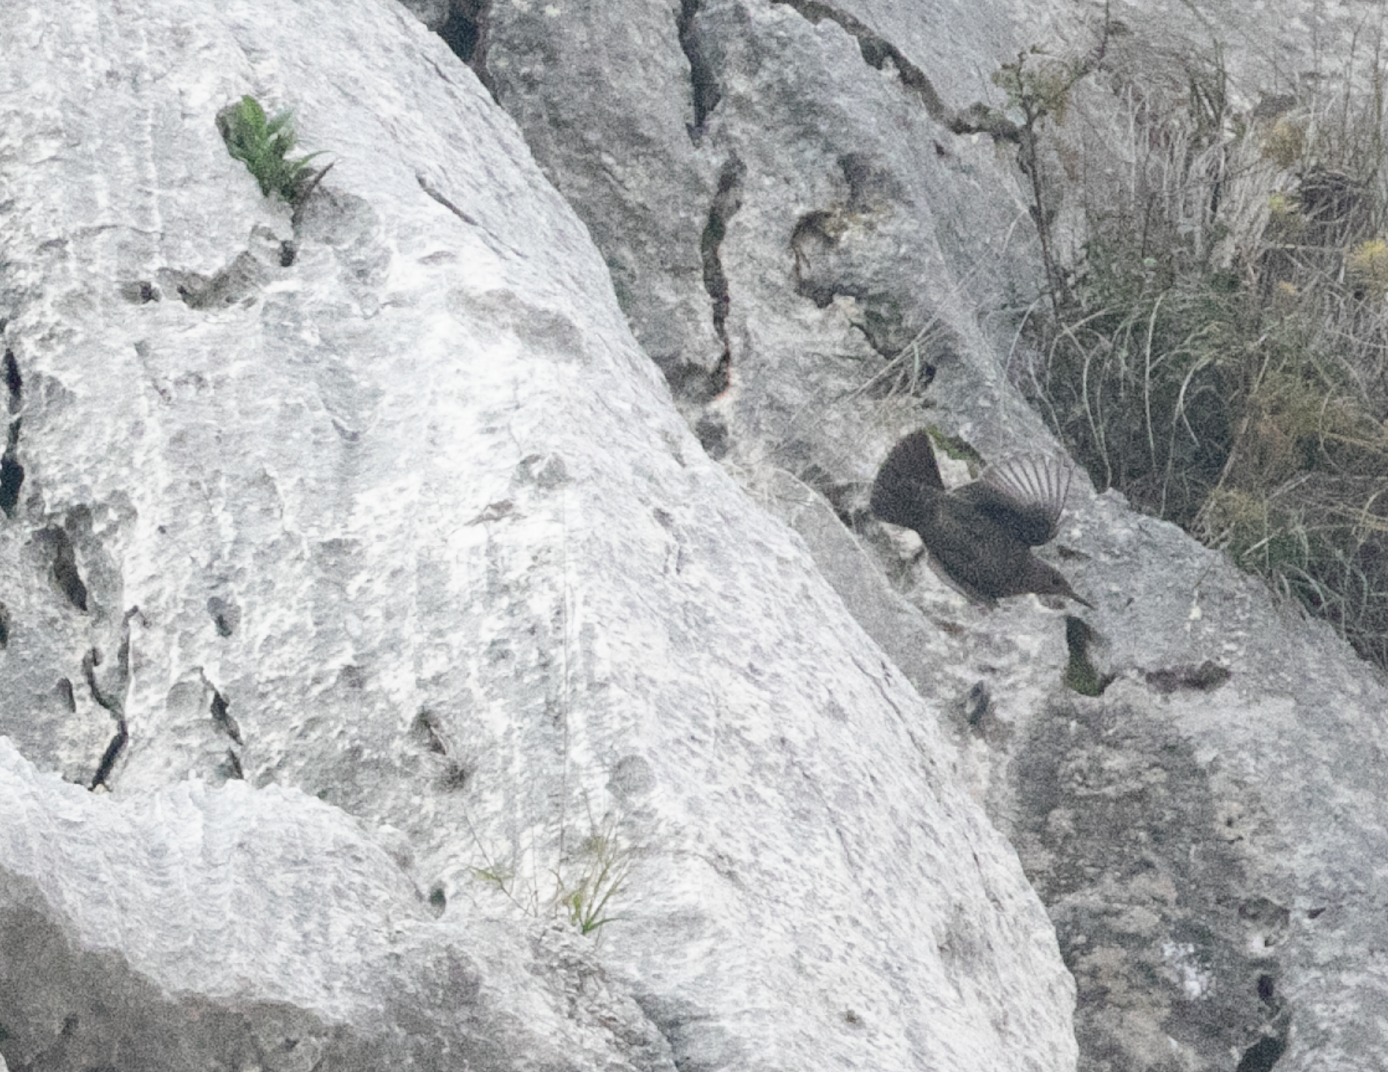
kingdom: Animalia
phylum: Chordata
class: Aves
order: Passeriformes
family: Muscicapidae
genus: Monticola
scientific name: Monticola solitarius
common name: Blue rock thrush
